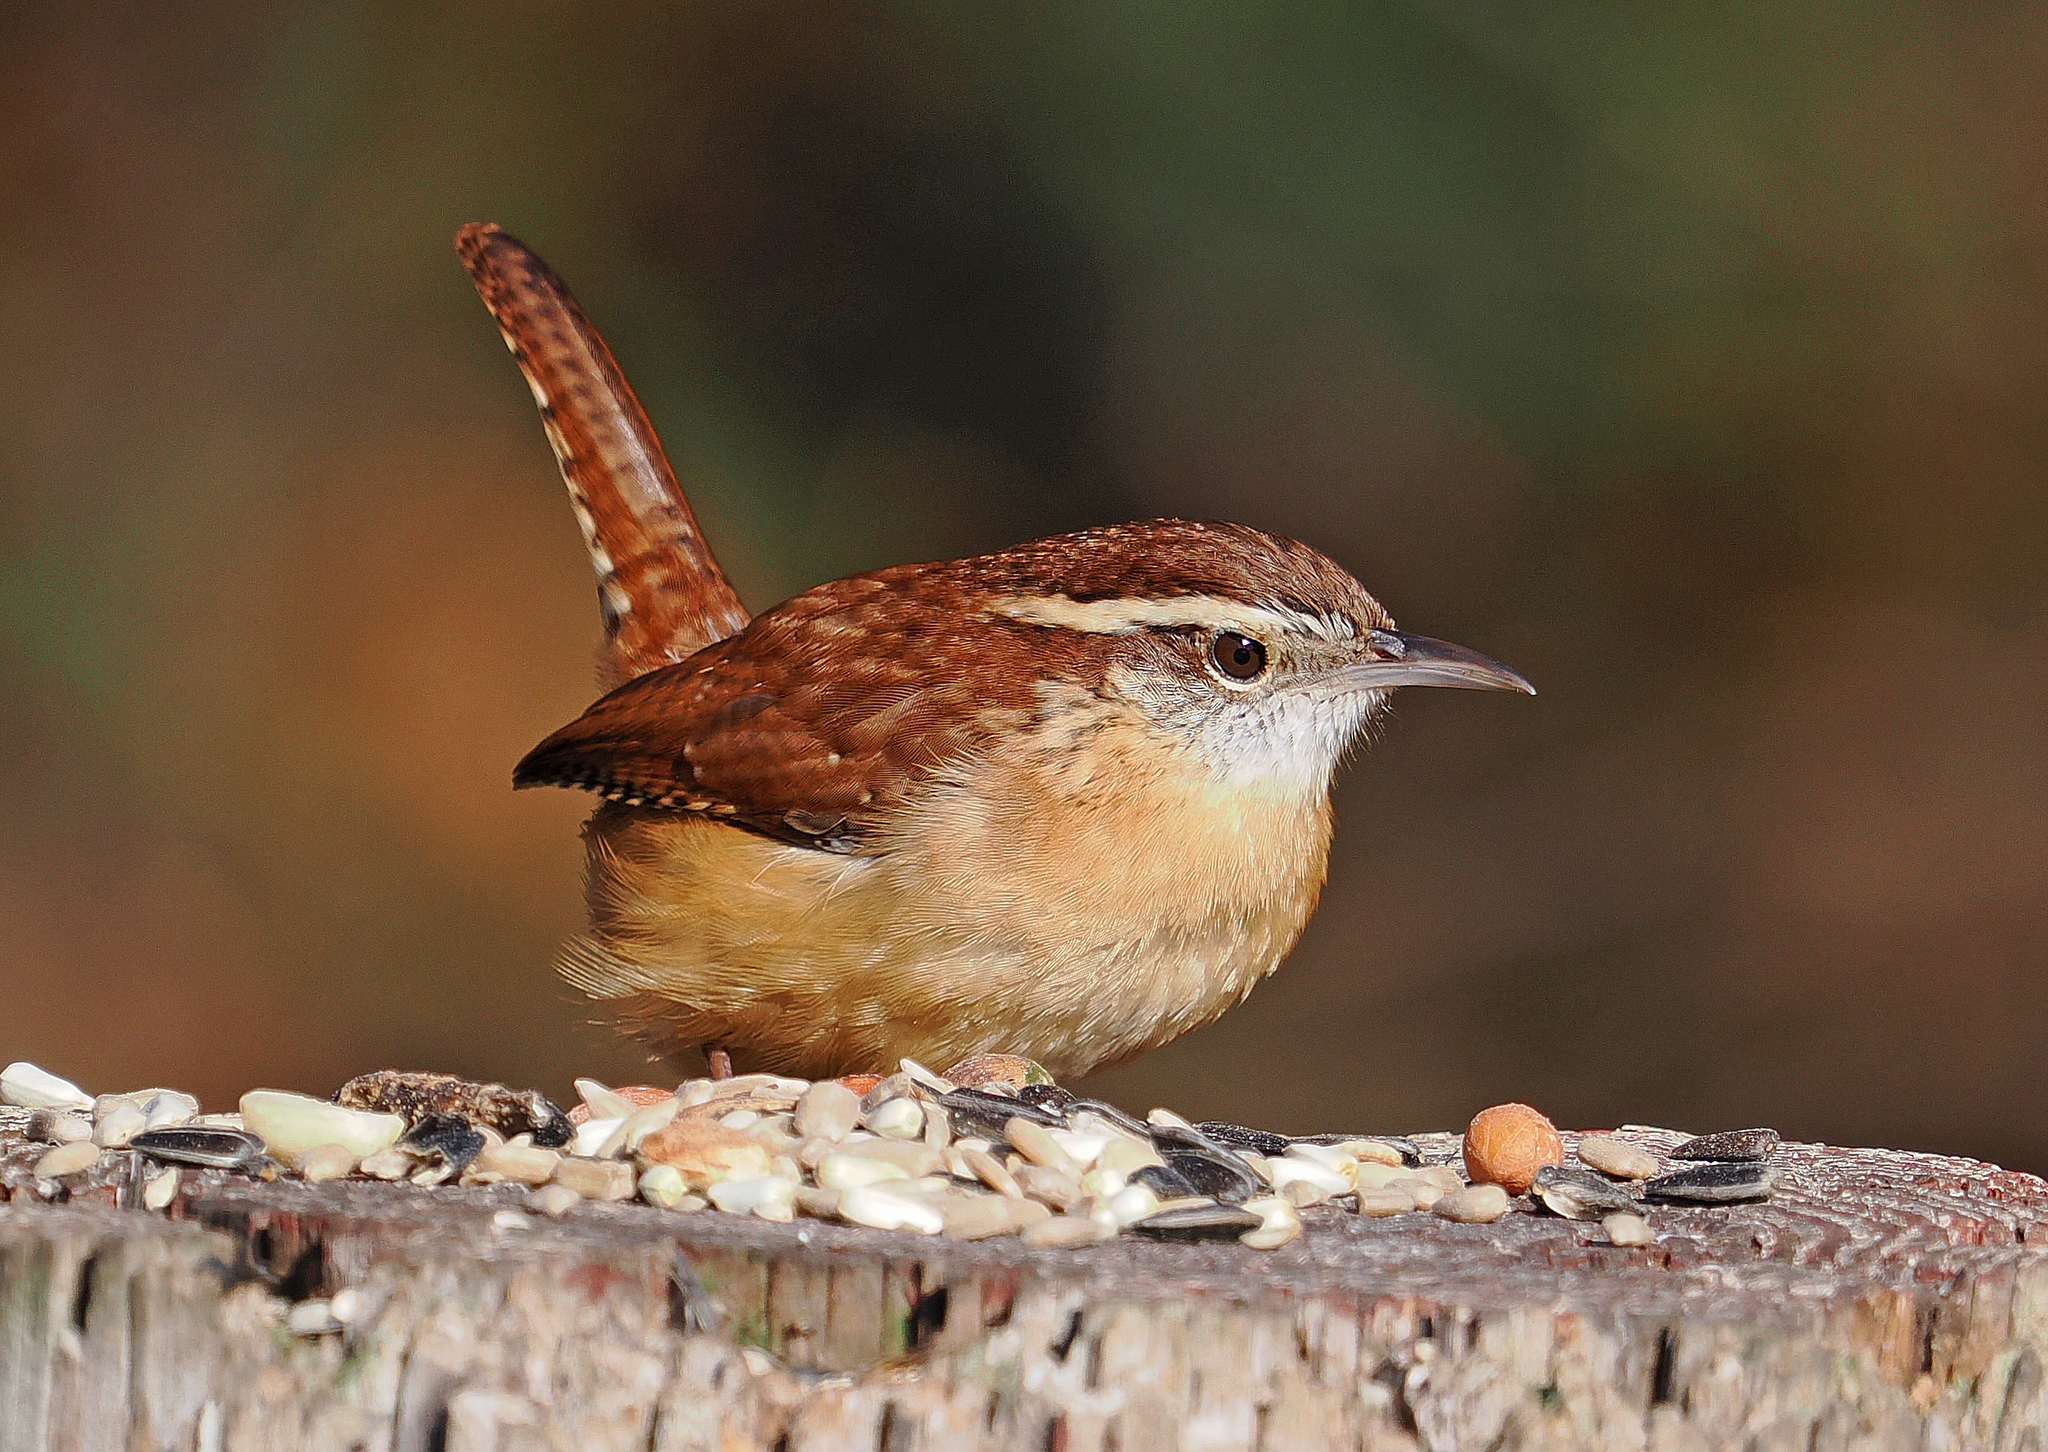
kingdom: Animalia
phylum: Chordata
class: Aves
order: Passeriformes
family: Troglodytidae
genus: Thryothorus
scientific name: Thryothorus ludovicianus
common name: Carolina wren
